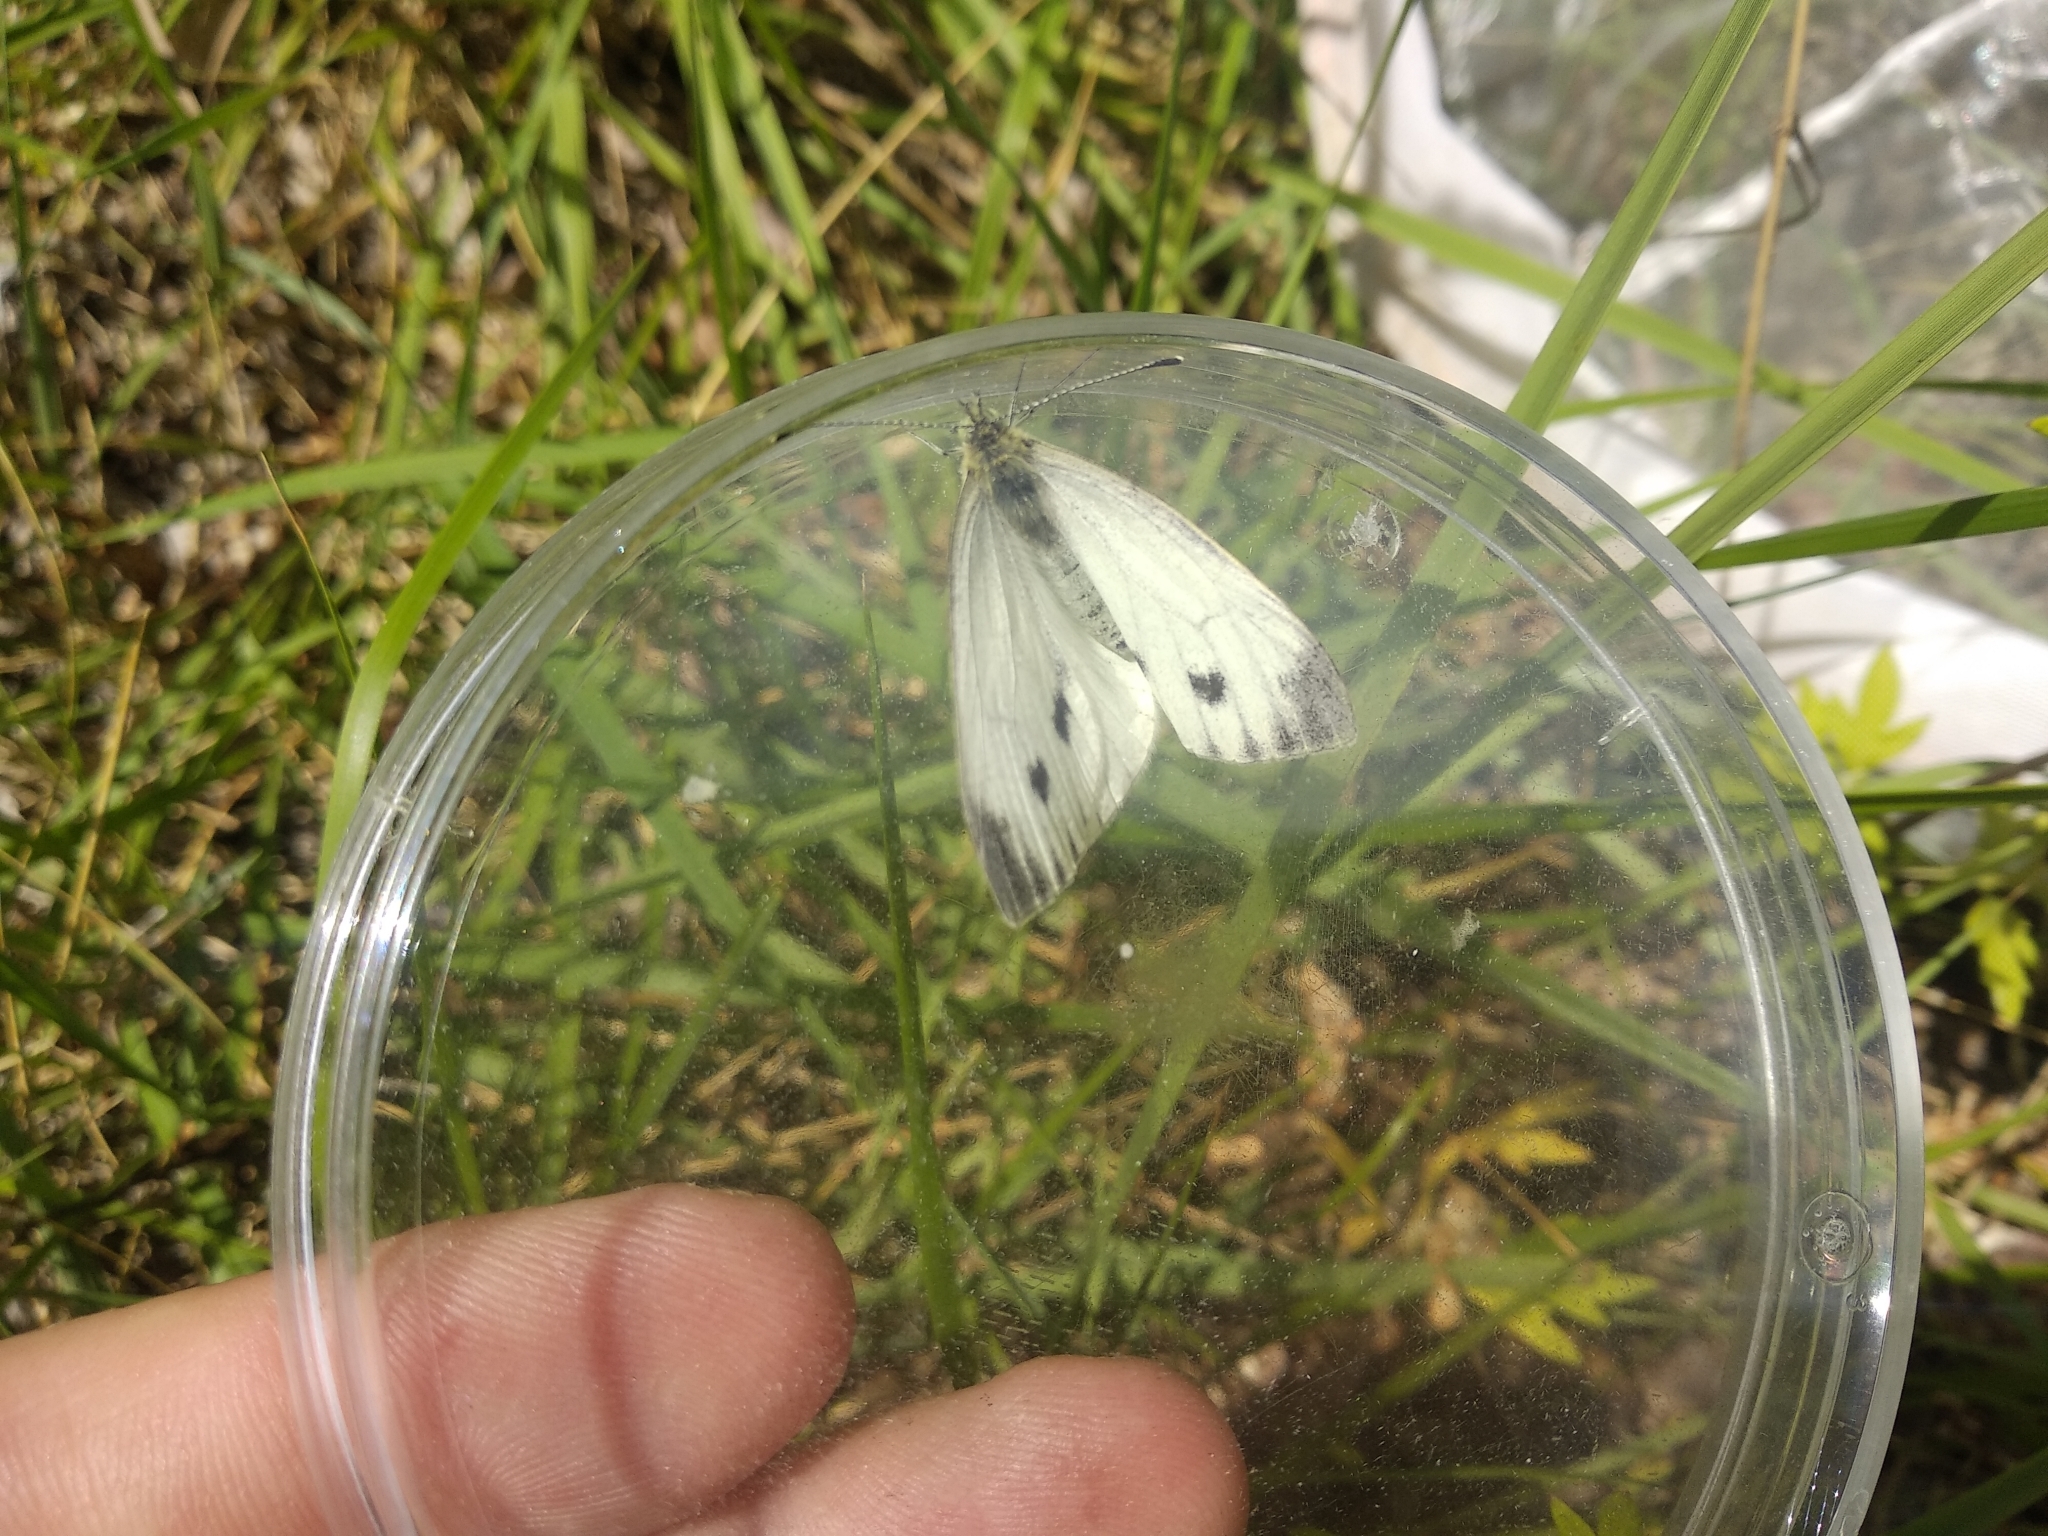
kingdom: Animalia
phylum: Arthropoda
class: Insecta
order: Lepidoptera
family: Pieridae
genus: Pieris
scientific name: Pieris napi
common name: Green-veined white
